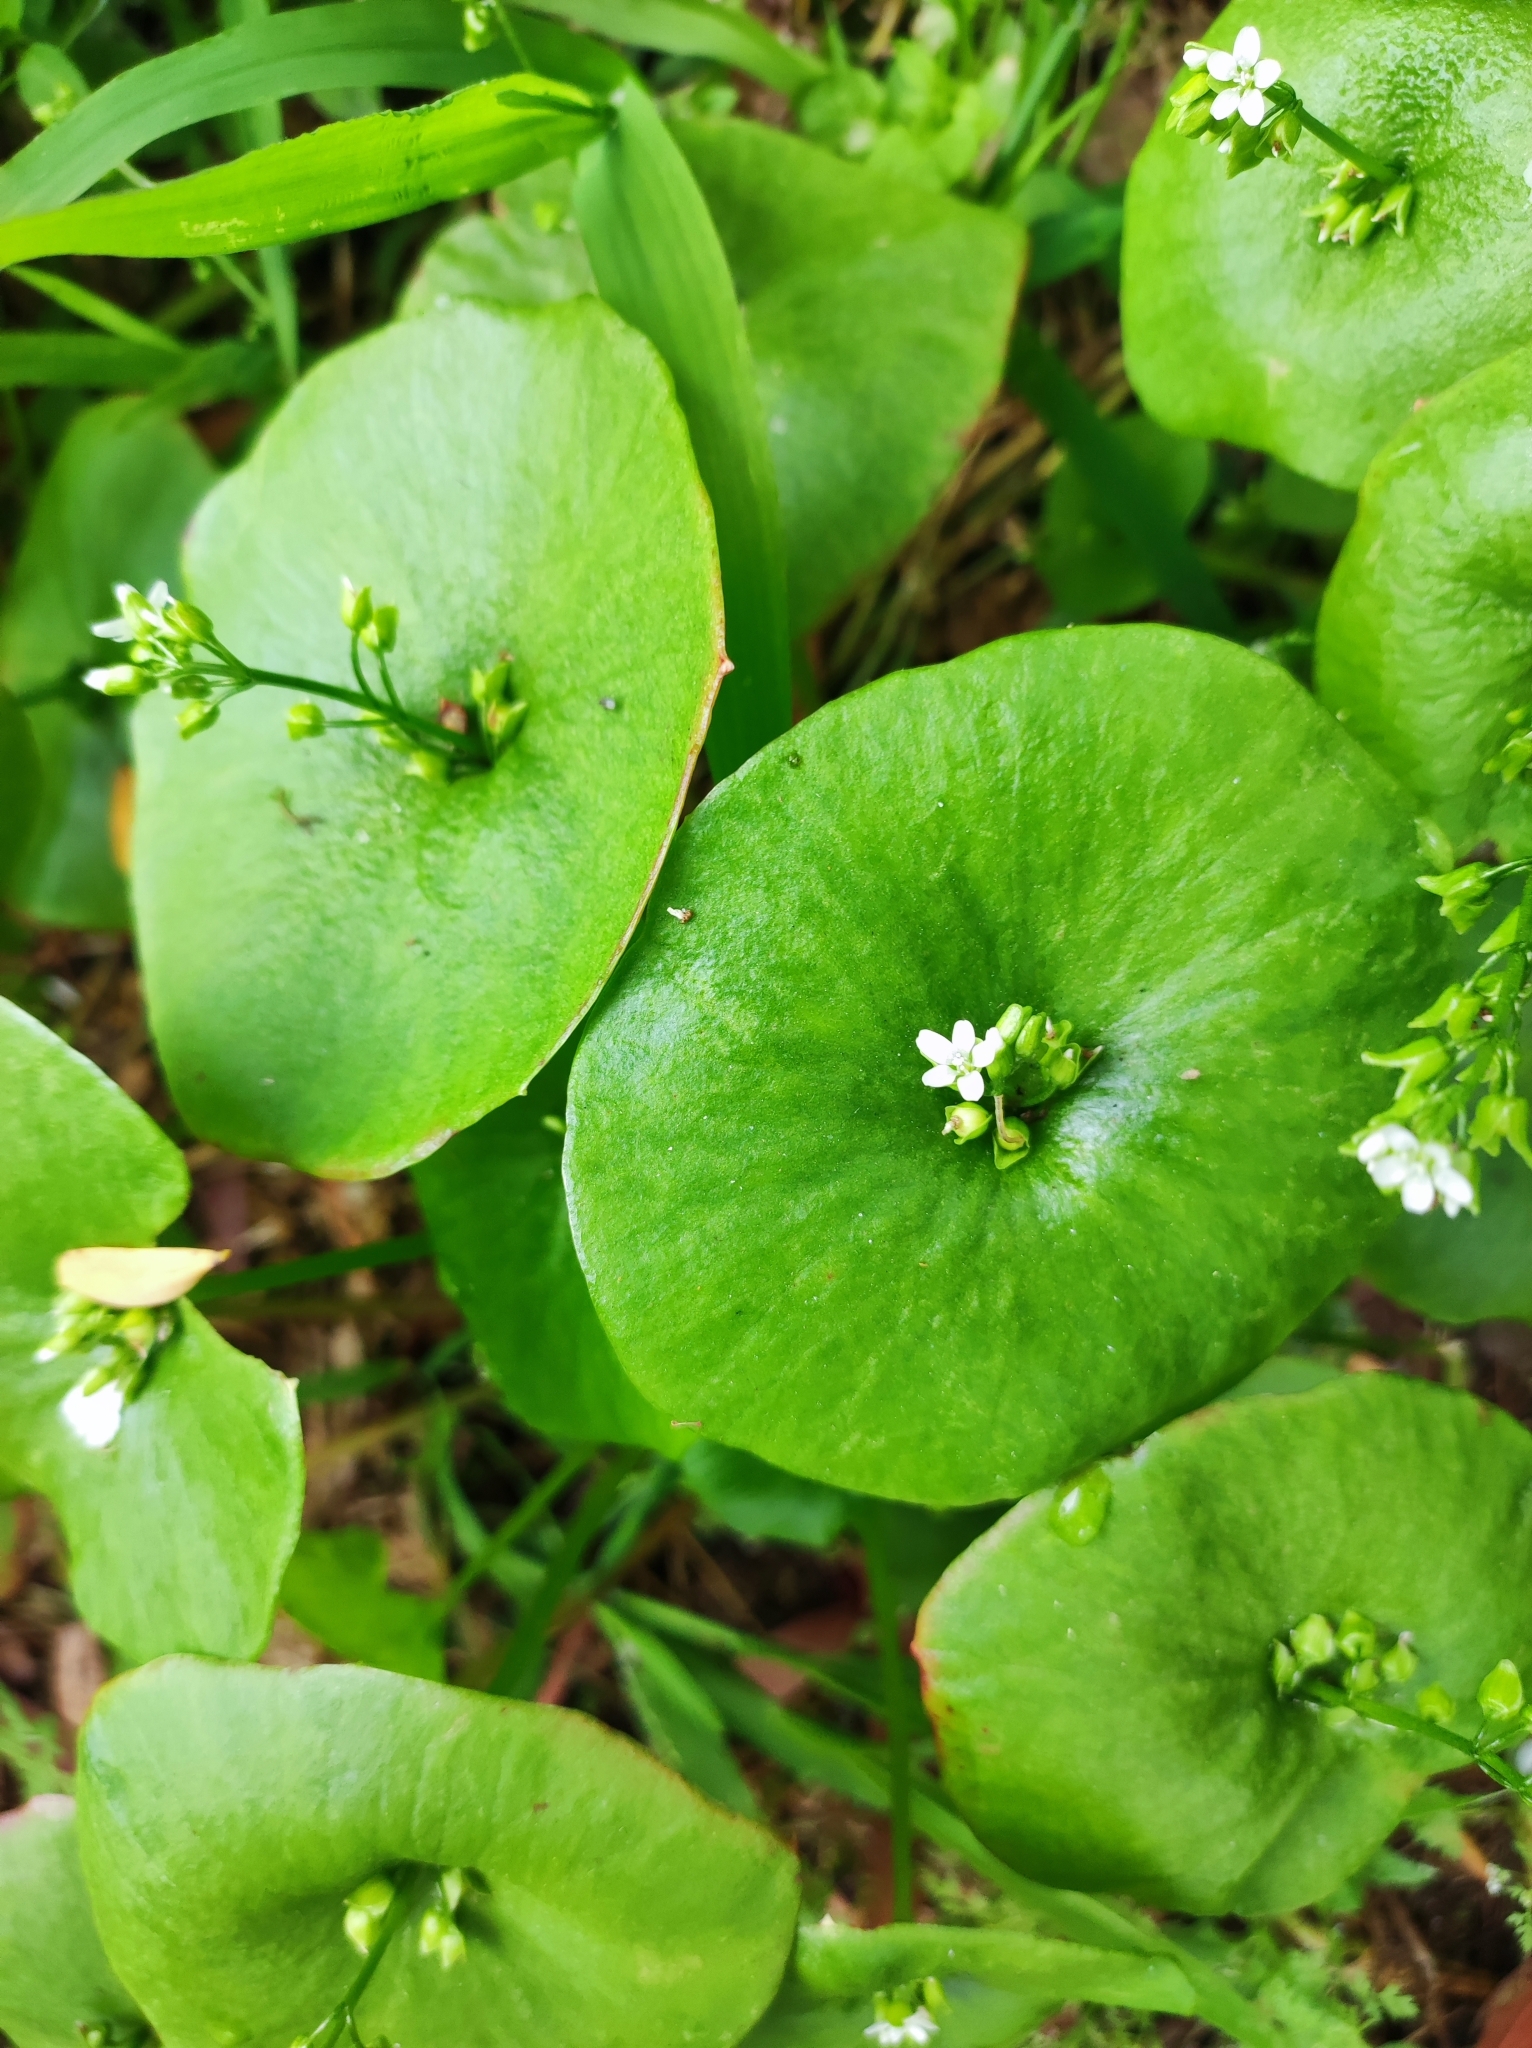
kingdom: Plantae
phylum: Tracheophyta
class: Magnoliopsida
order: Caryophyllales
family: Montiaceae
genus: Claytonia
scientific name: Claytonia perfoliata
